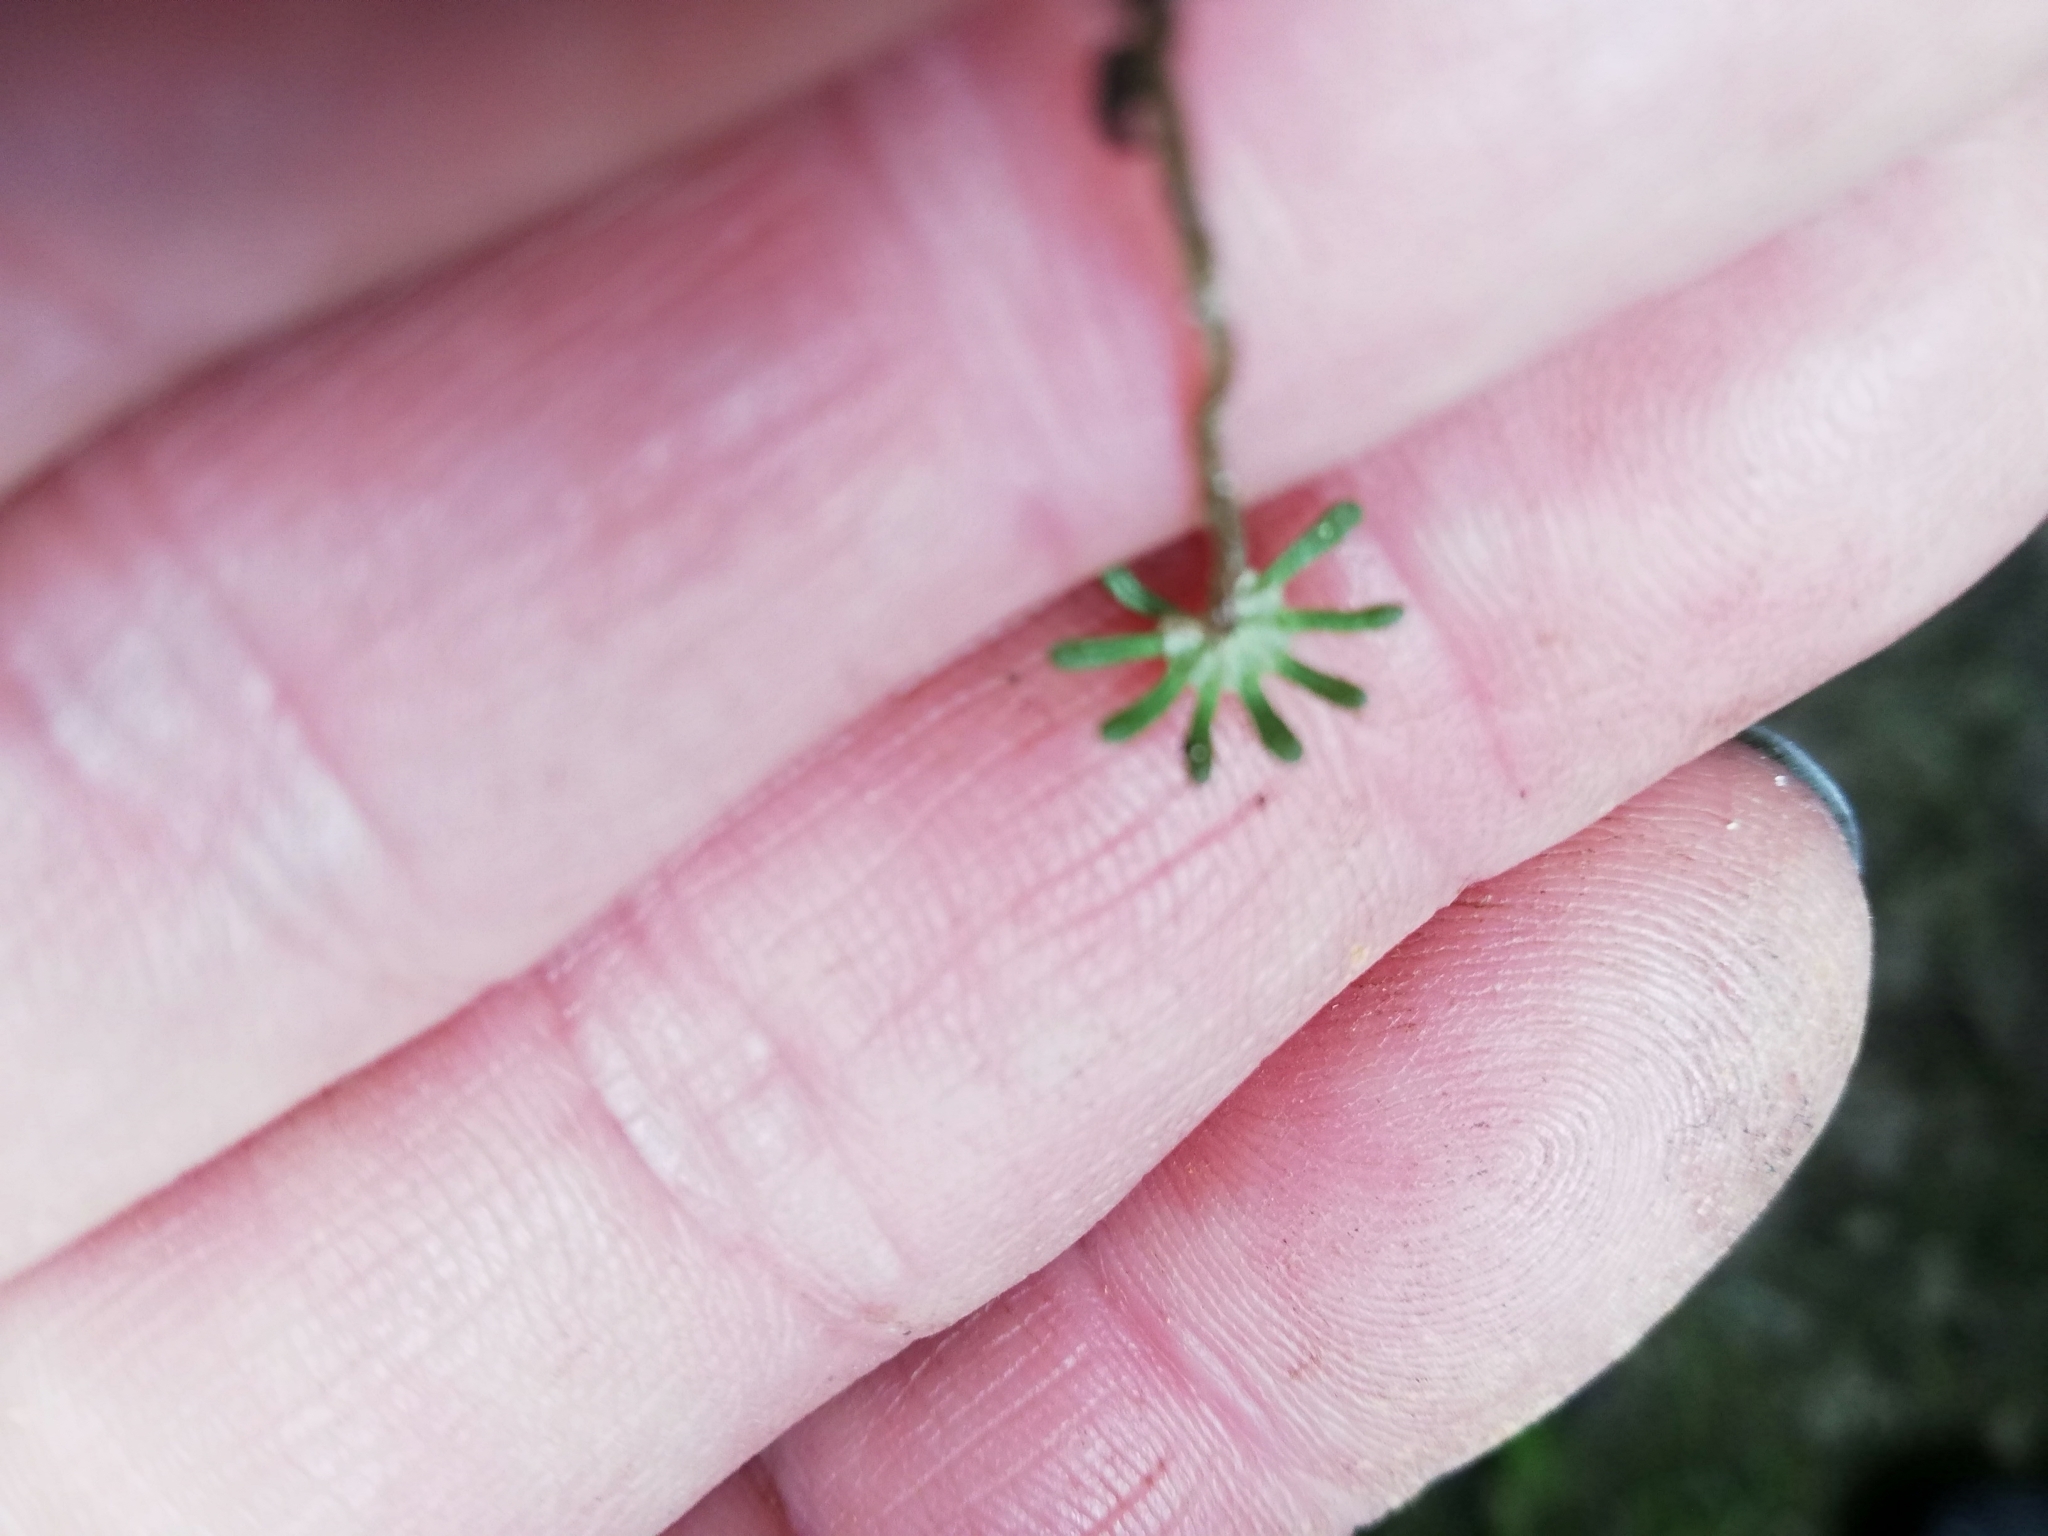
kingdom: Plantae
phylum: Marchantiophyta
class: Marchantiopsida
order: Marchantiales
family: Marchantiaceae
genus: Marchantia
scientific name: Marchantia polymorpha
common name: Common liverwort
